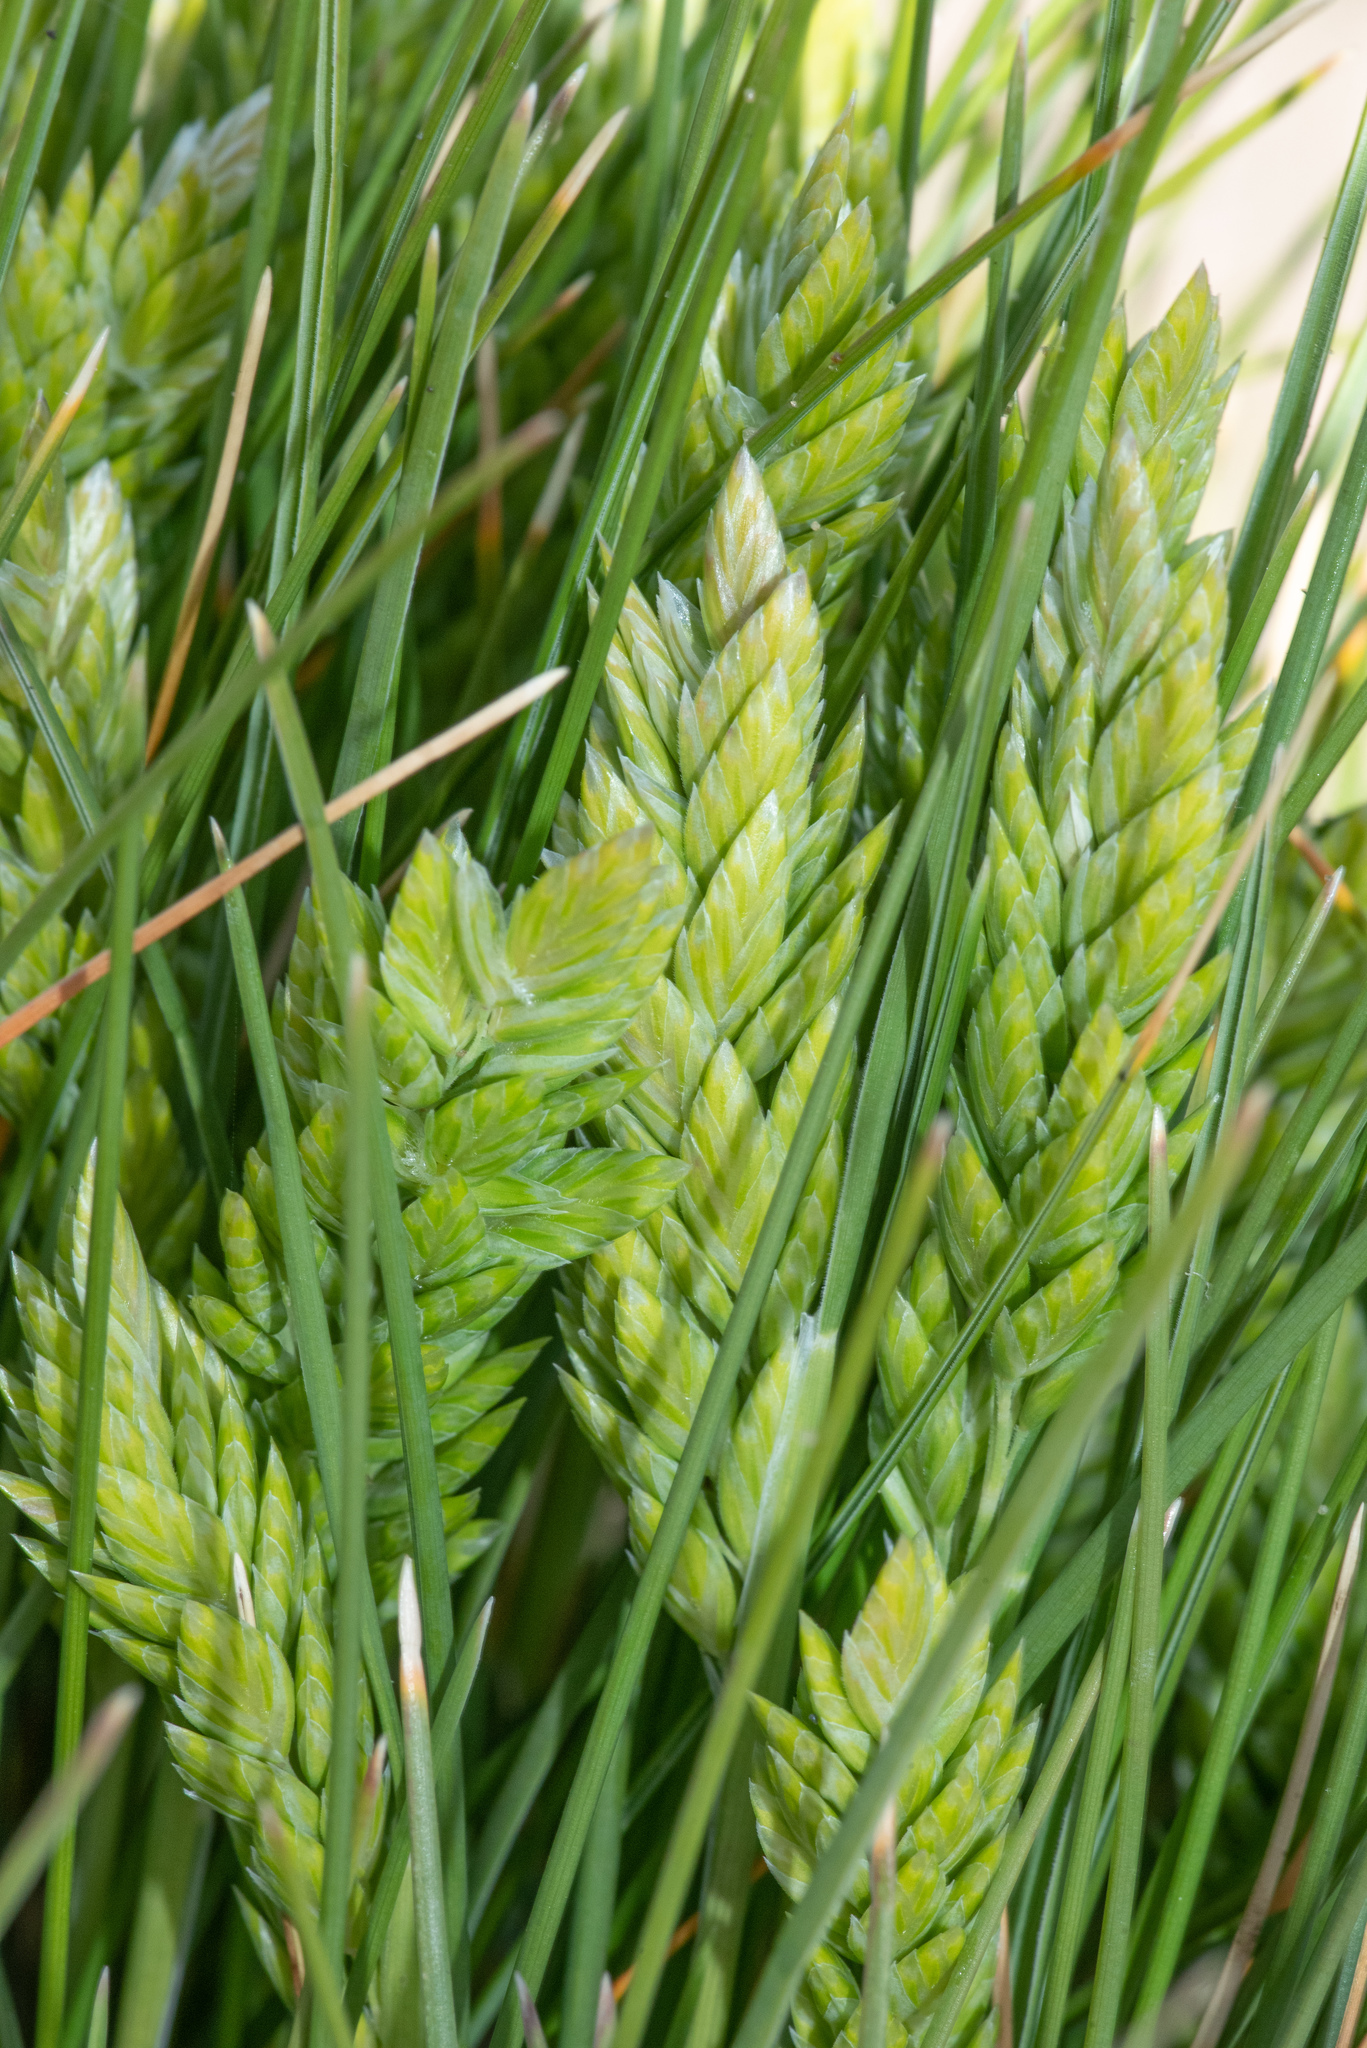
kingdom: Plantae
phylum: Tracheophyta
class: Liliopsida
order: Poales
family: Poaceae
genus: Poa
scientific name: Poa douglasii
